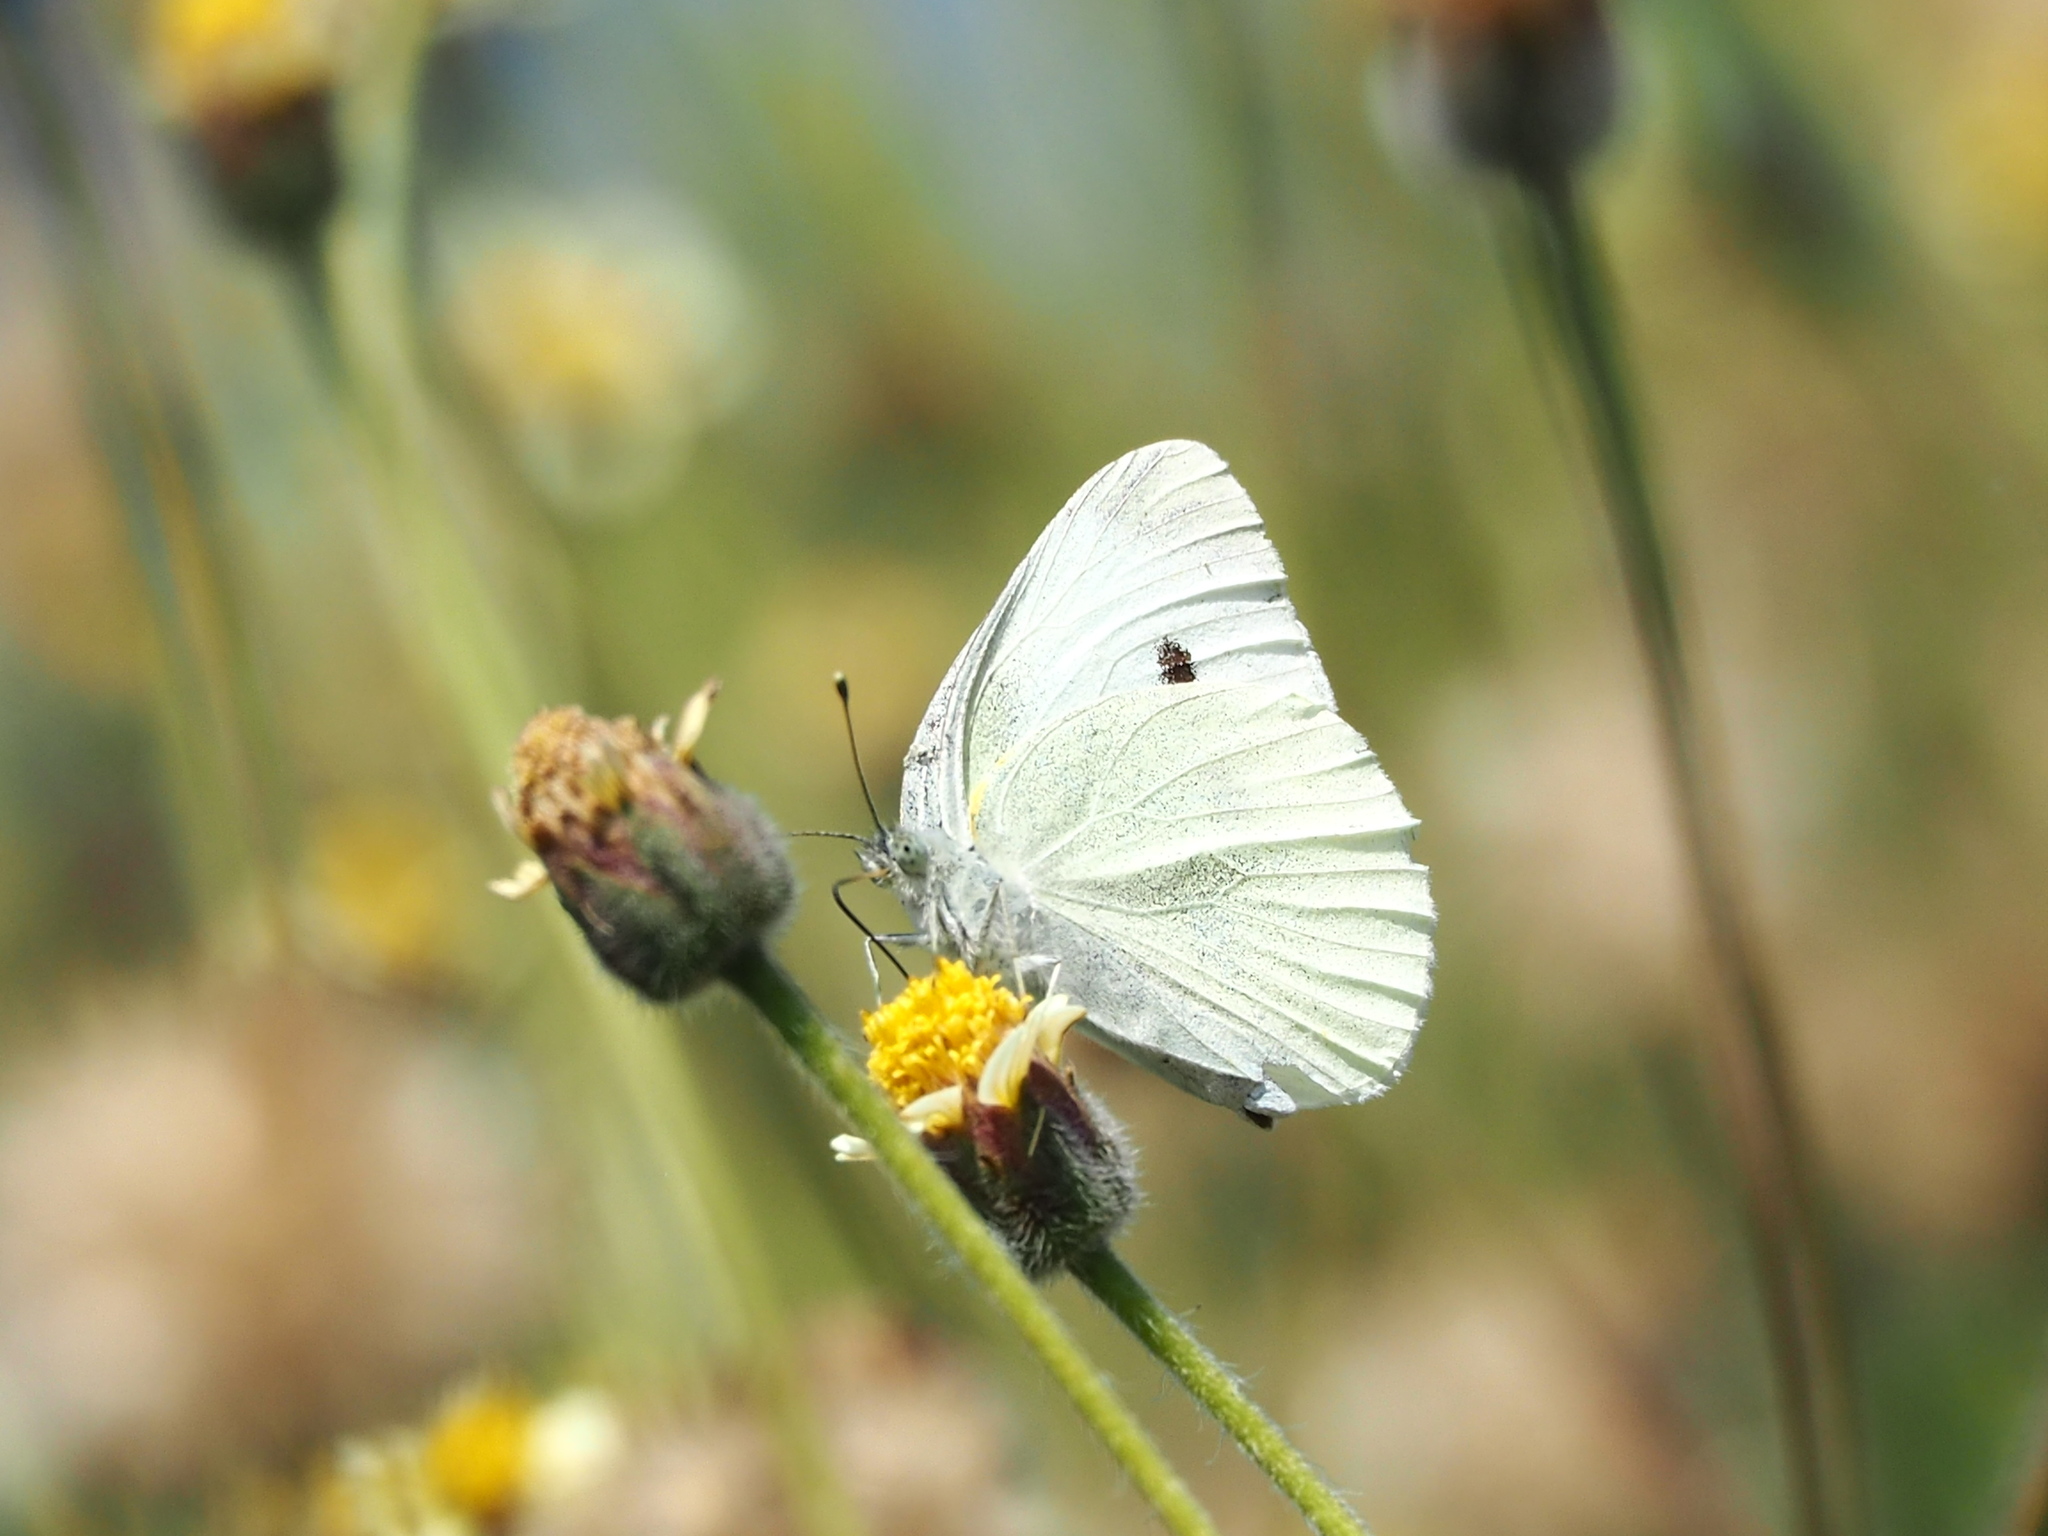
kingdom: Animalia
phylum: Arthropoda
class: Insecta
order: Lepidoptera
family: Pieridae
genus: Pieris
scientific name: Pieris rapae
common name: Small white
